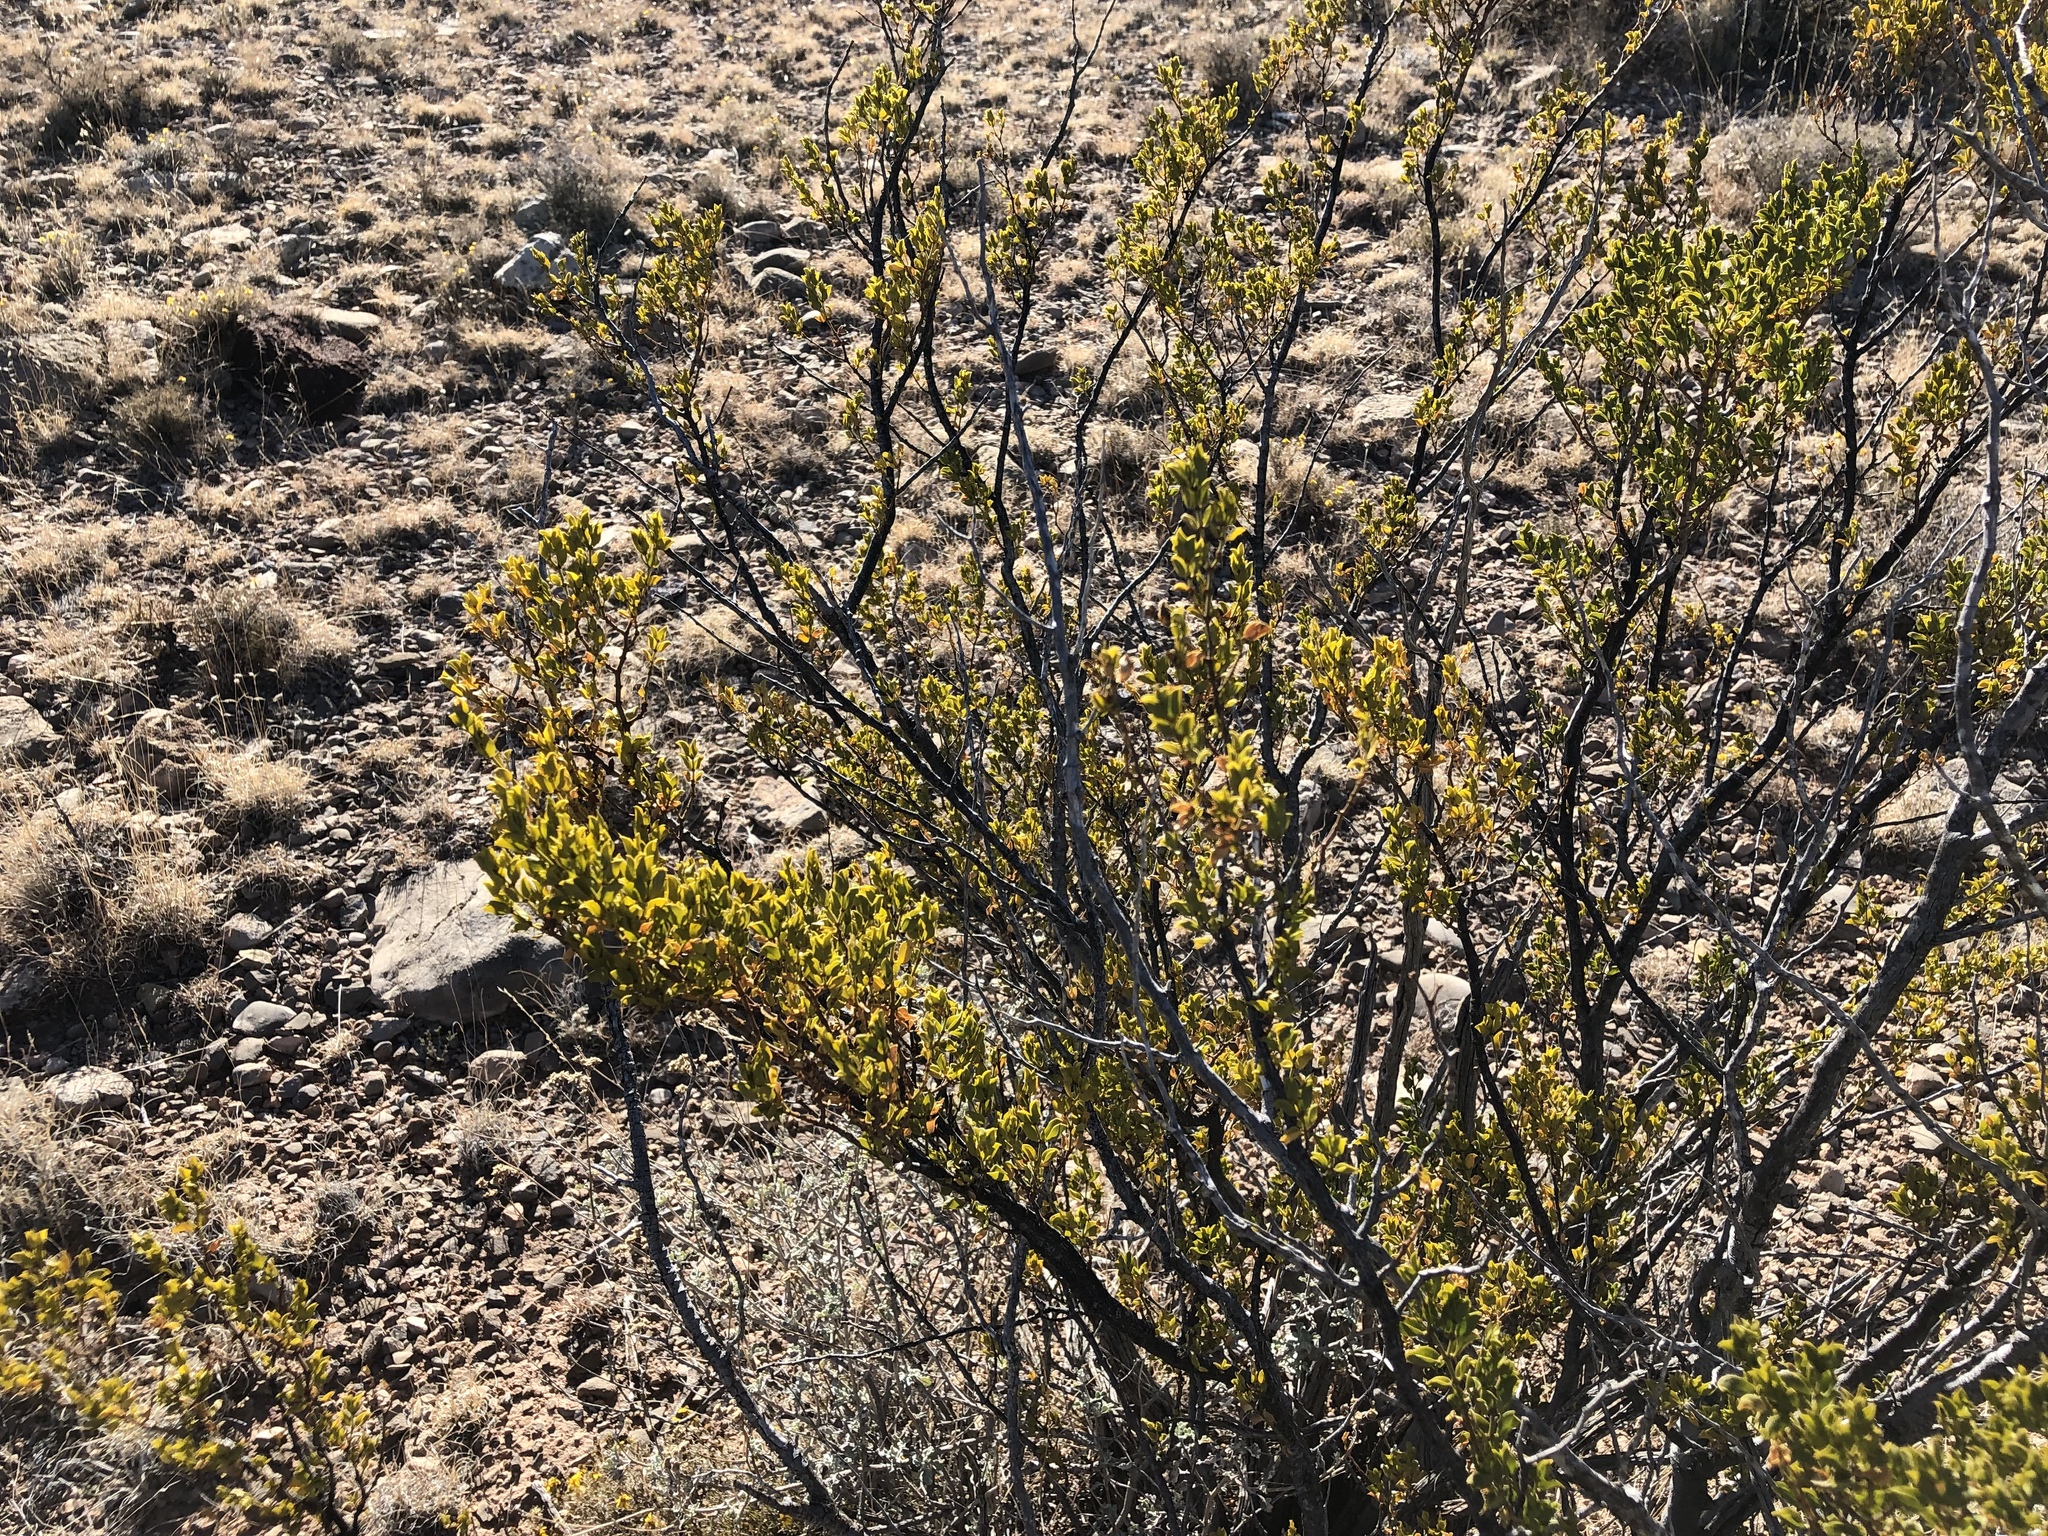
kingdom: Plantae
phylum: Tracheophyta
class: Magnoliopsida
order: Zygophyllales
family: Zygophyllaceae
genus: Larrea
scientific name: Larrea tridentata
